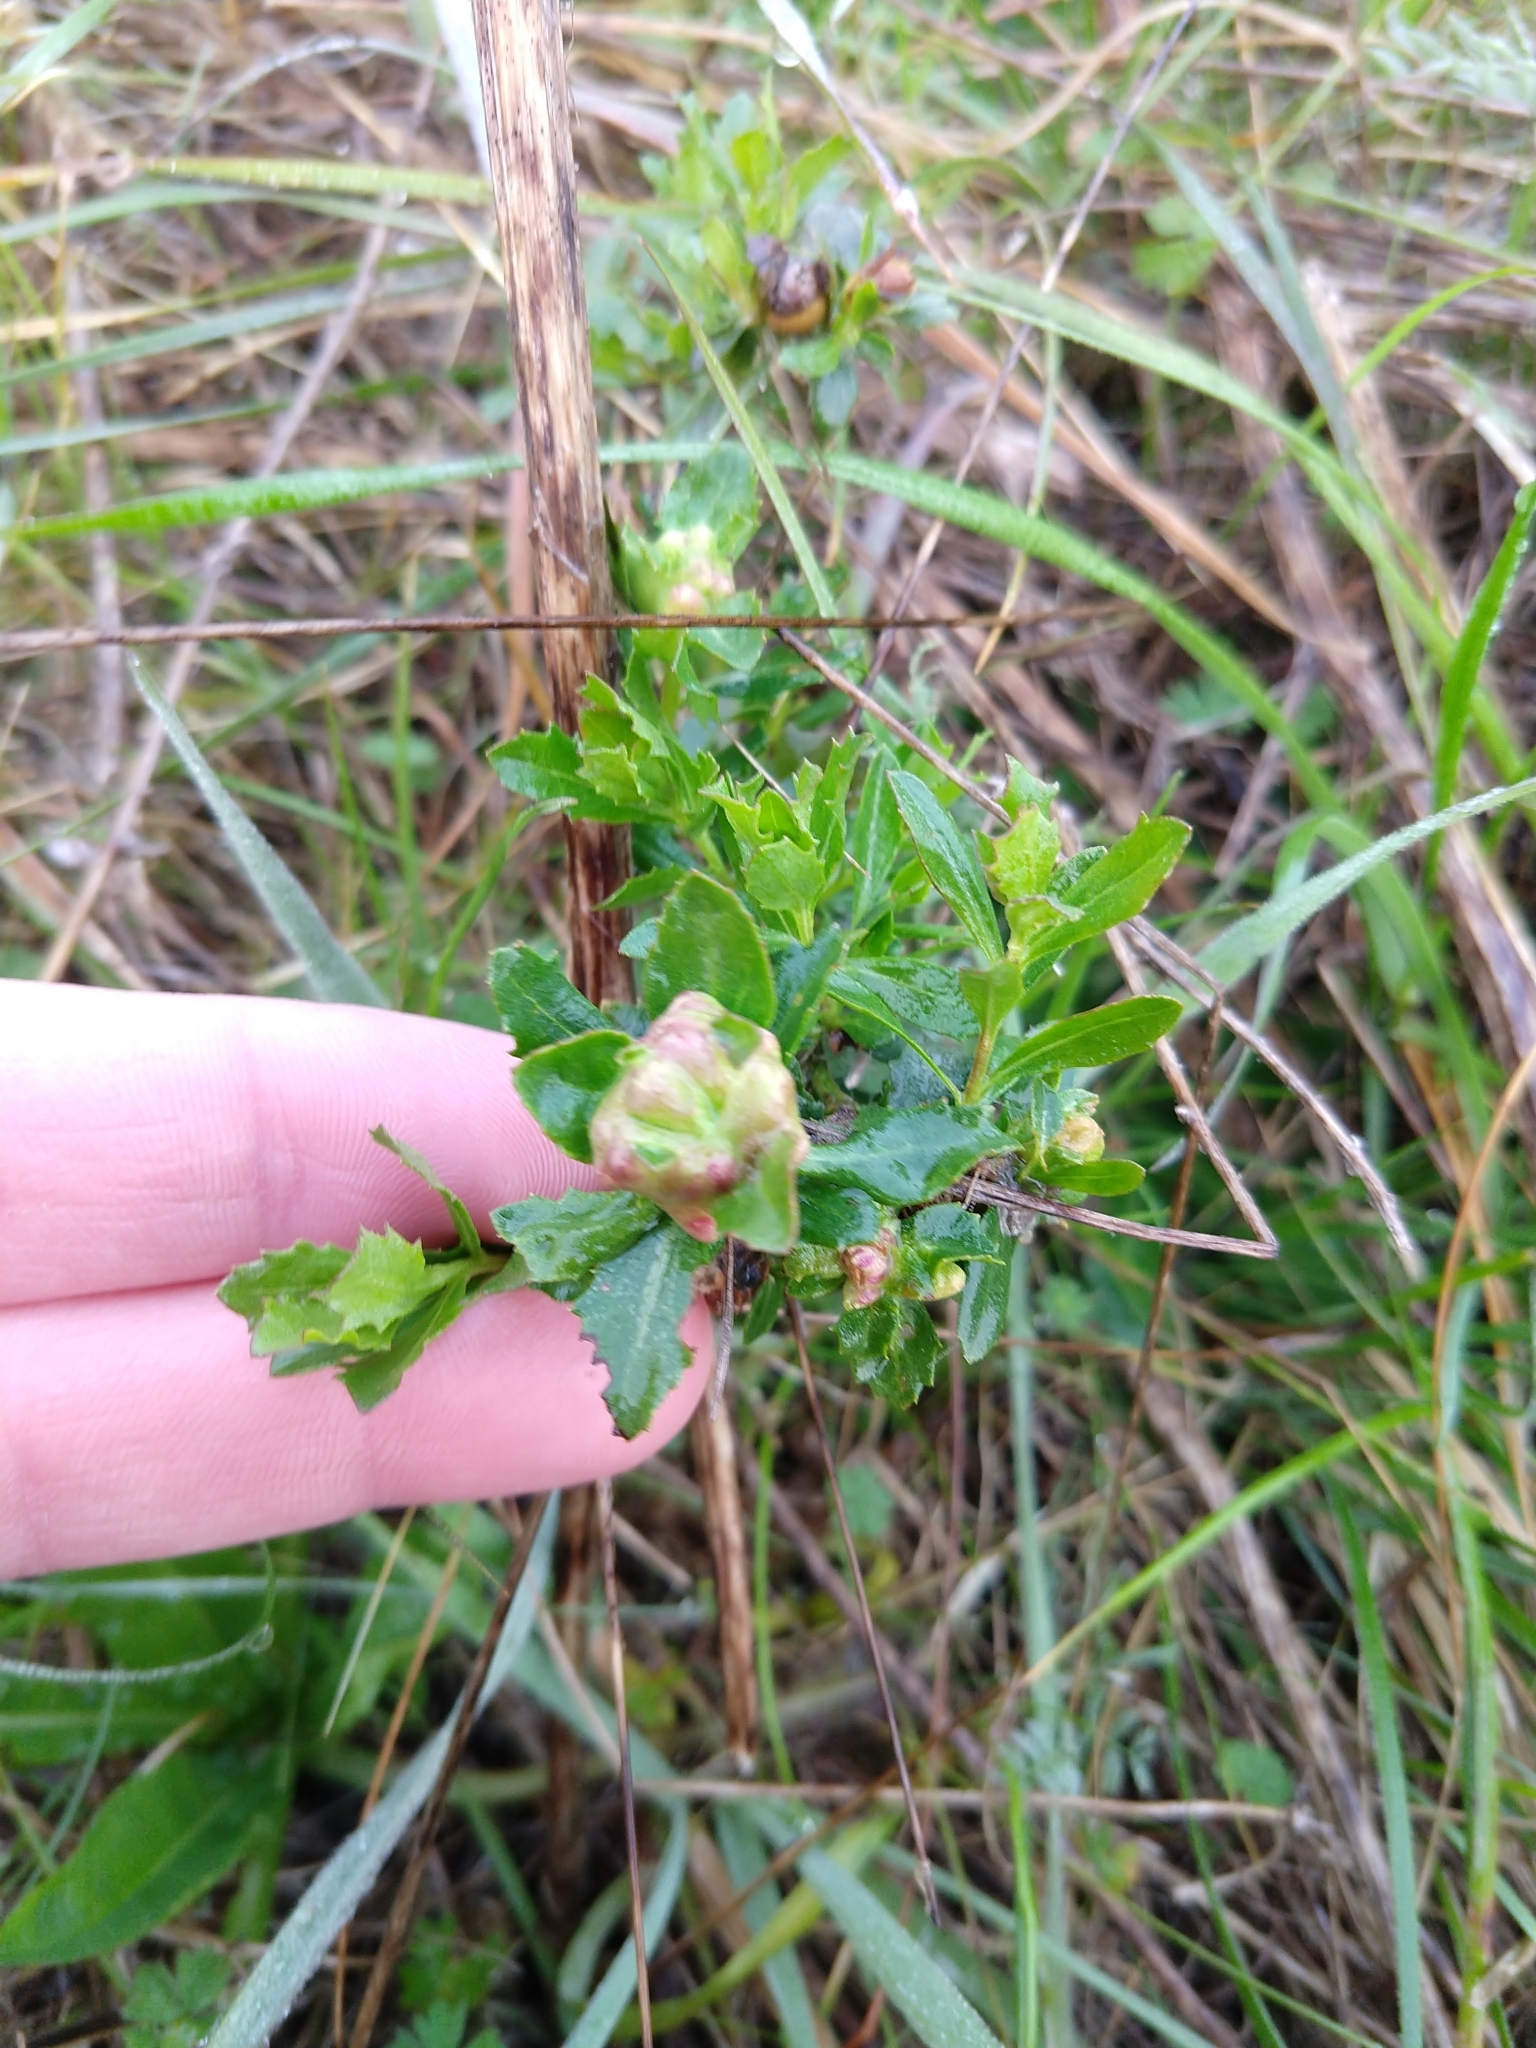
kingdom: Animalia
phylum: Arthropoda
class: Insecta
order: Diptera
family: Cecidomyiidae
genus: Rhopalomyia
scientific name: Rhopalomyia californica
